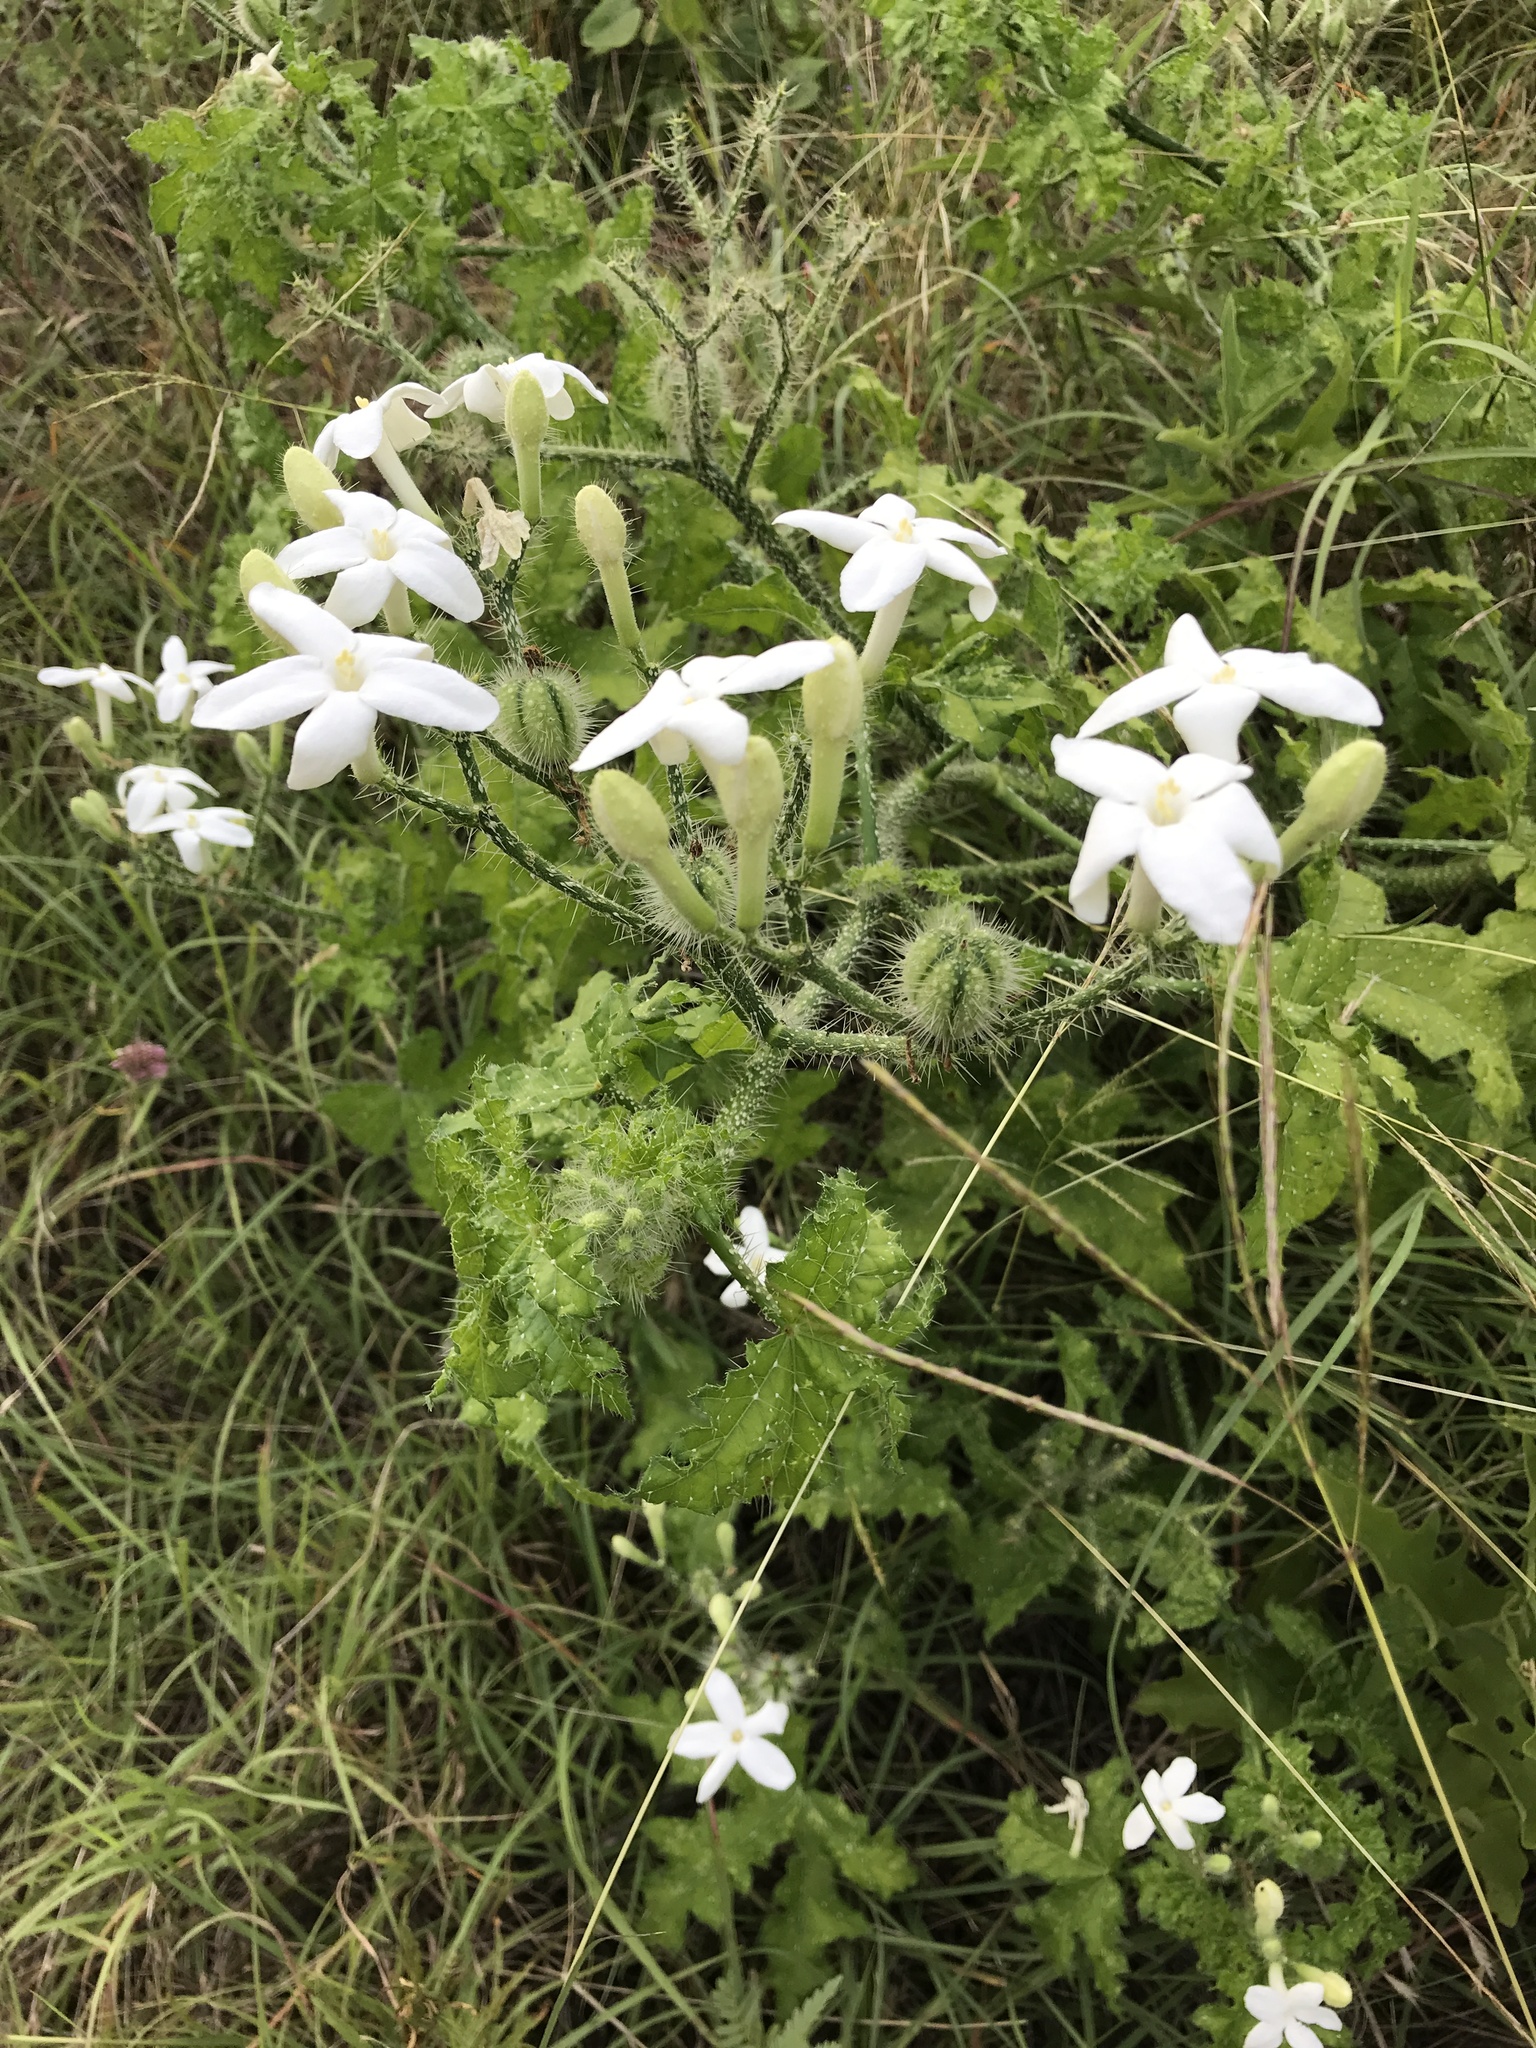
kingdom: Plantae
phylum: Tracheophyta
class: Magnoliopsida
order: Malpighiales
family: Euphorbiaceae
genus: Cnidoscolus
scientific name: Cnidoscolus texanus
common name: Texas bull-nettle
